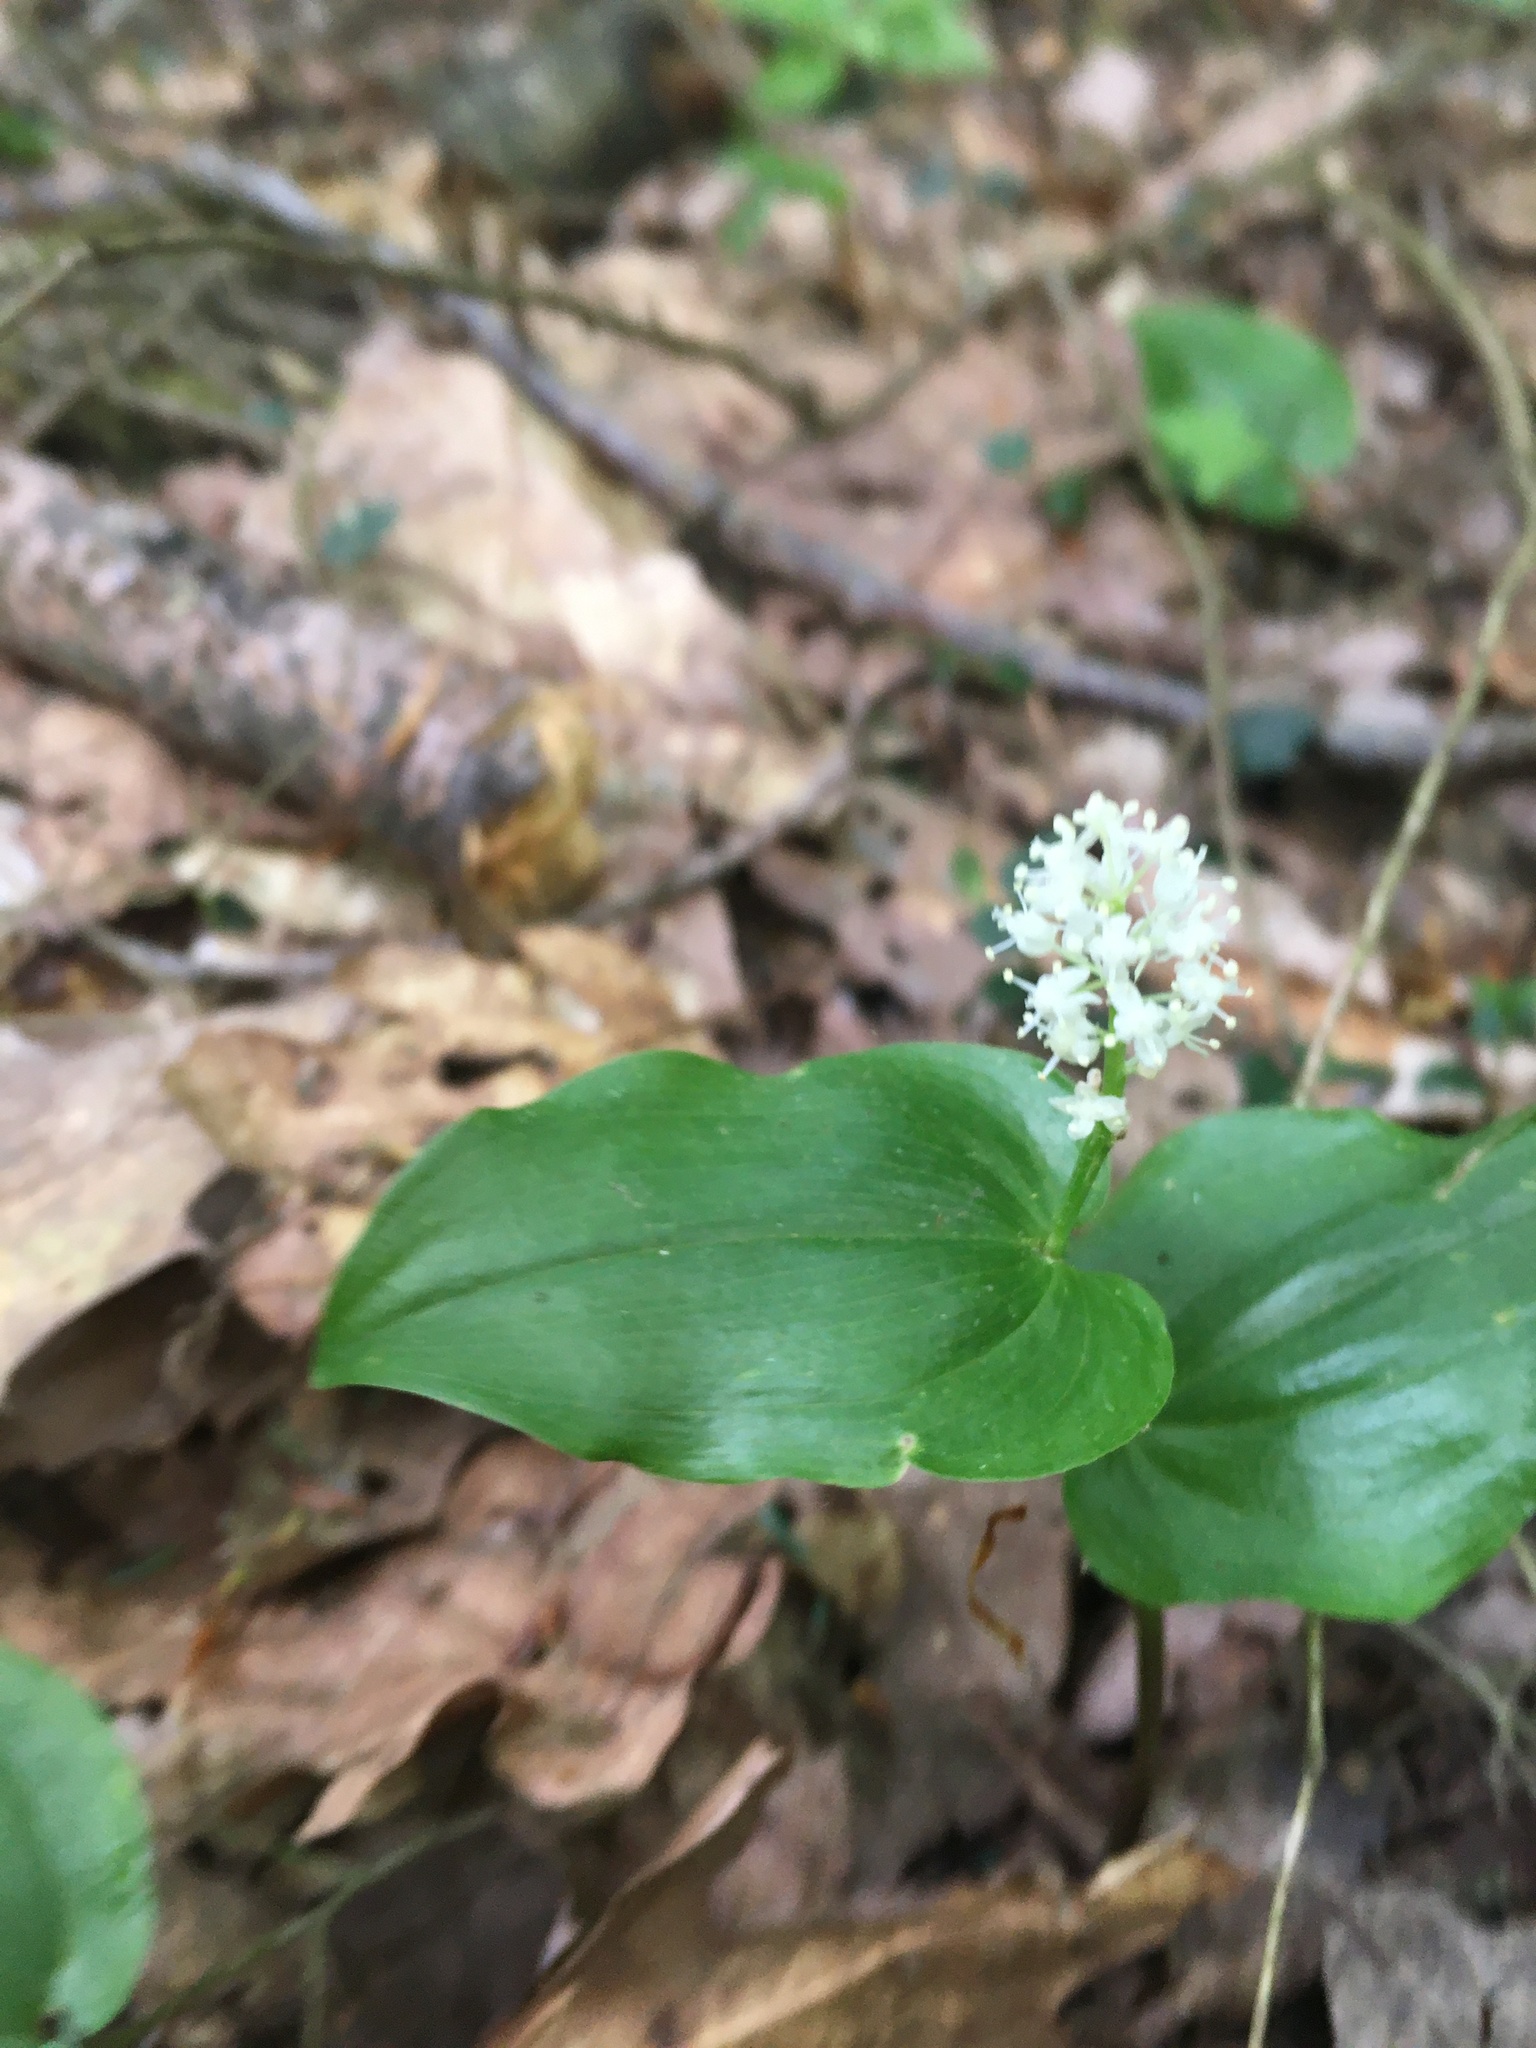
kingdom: Plantae
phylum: Tracheophyta
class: Liliopsida
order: Asparagales
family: Asparagaceae
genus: Maianthemum
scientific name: Maianthemum canadense
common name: False lily-of-the-valley
